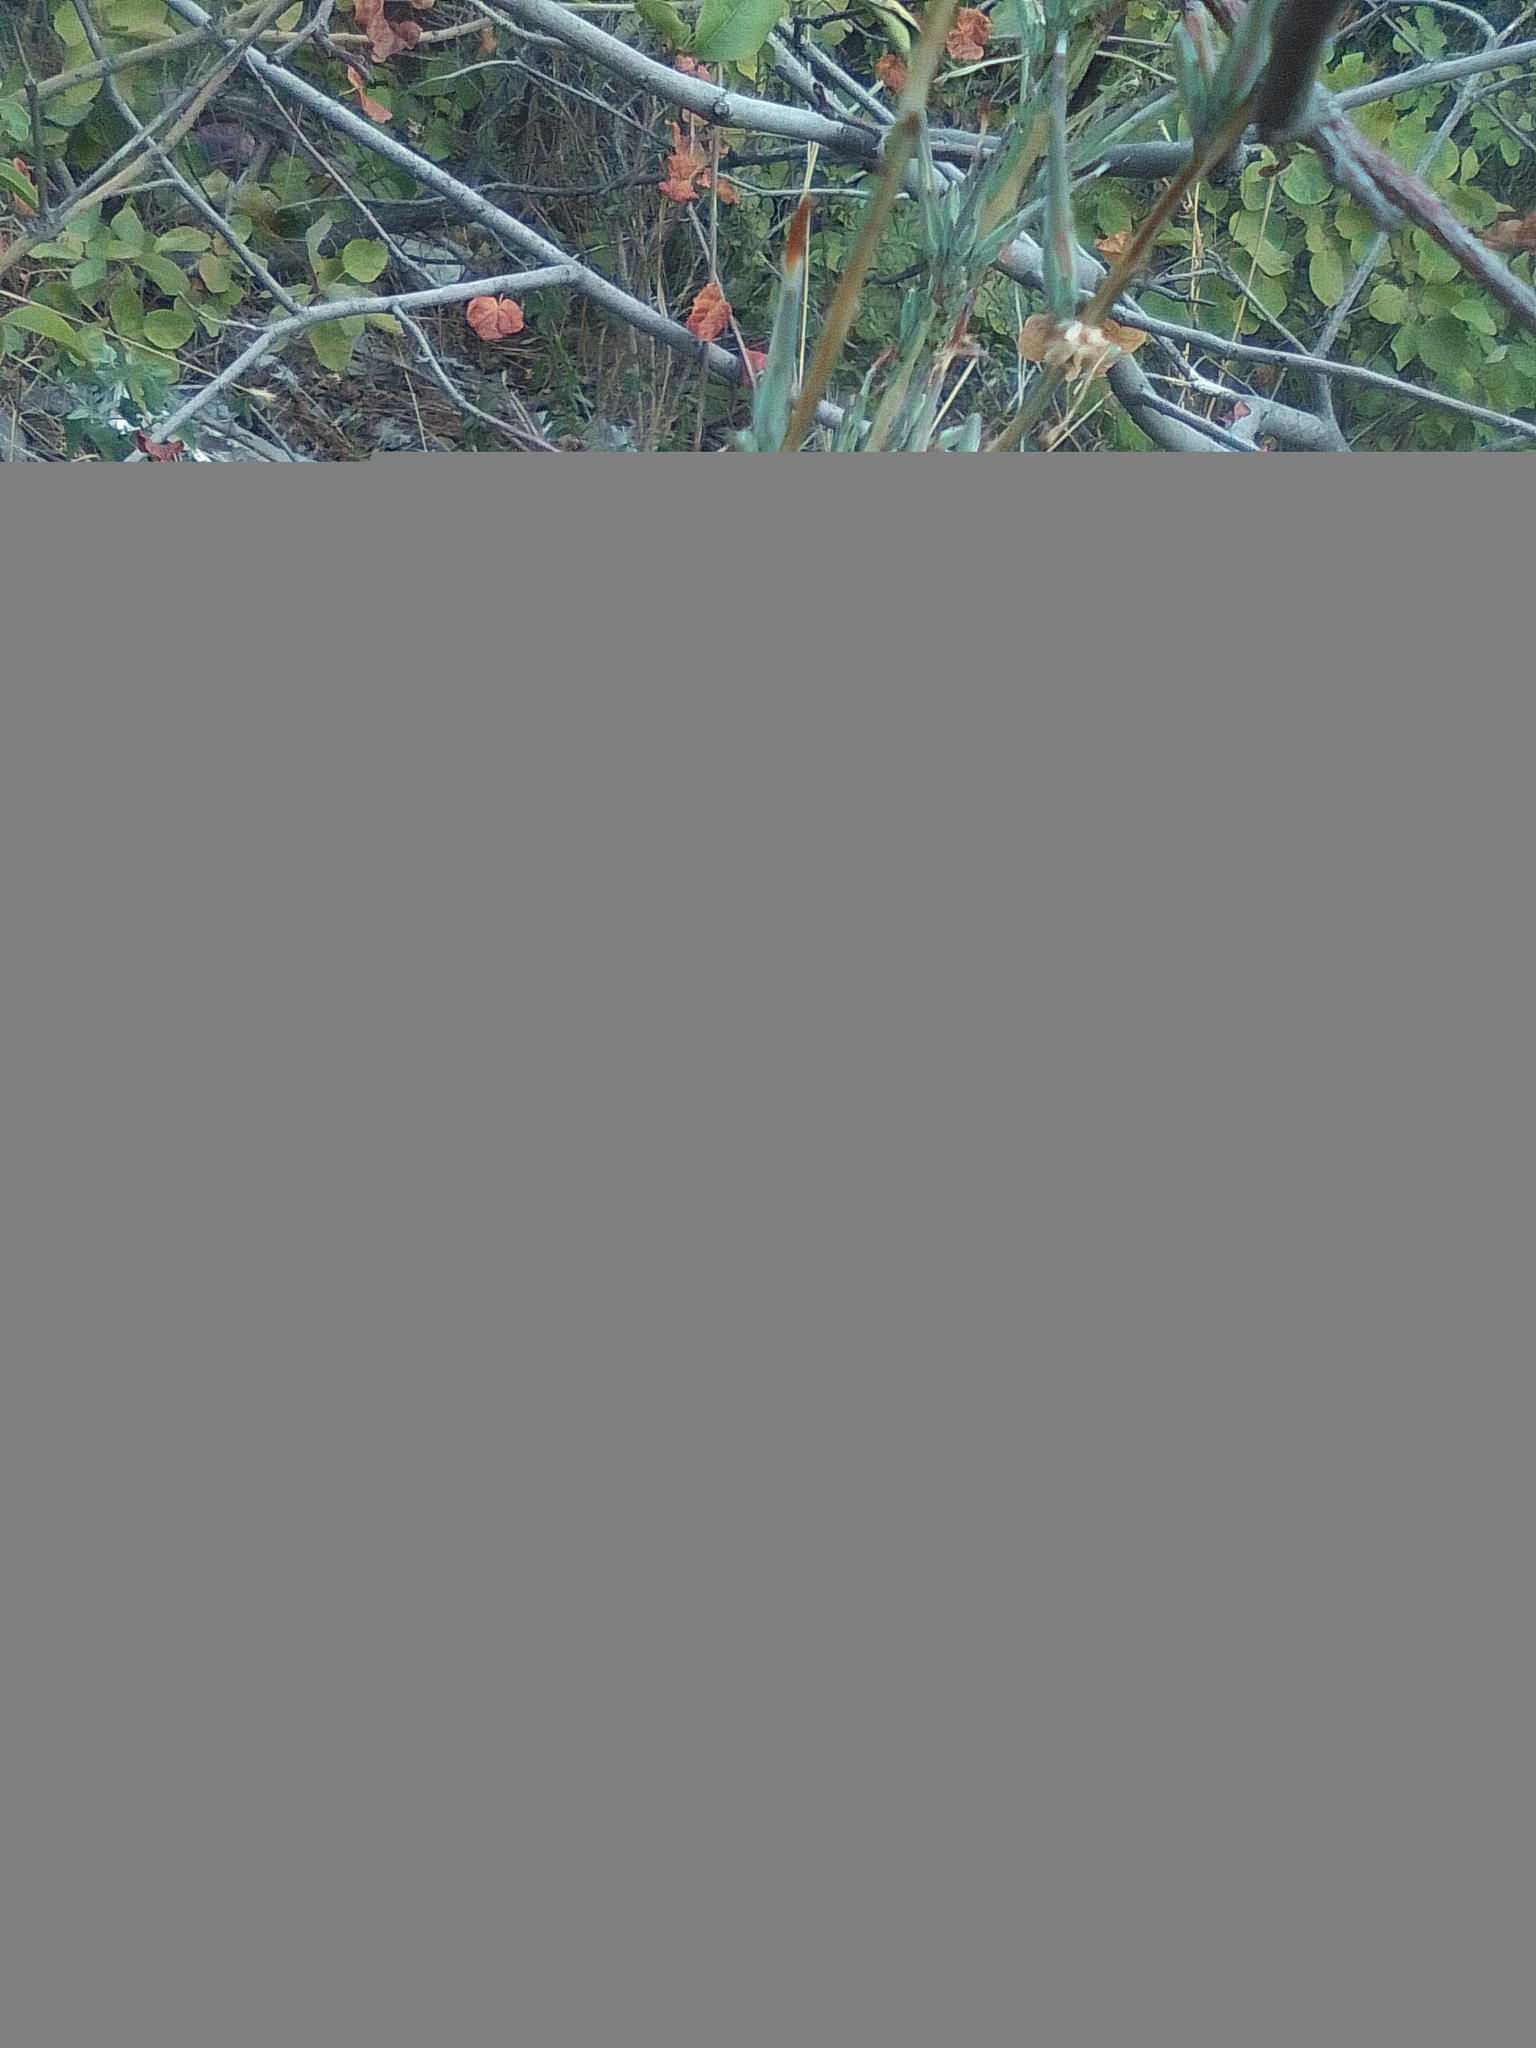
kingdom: Animalia
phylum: Mollusca
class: Gastropoda
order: Stylommatophora
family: Enidae
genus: Brephulopsis
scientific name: Brephulopsis cylindrica
